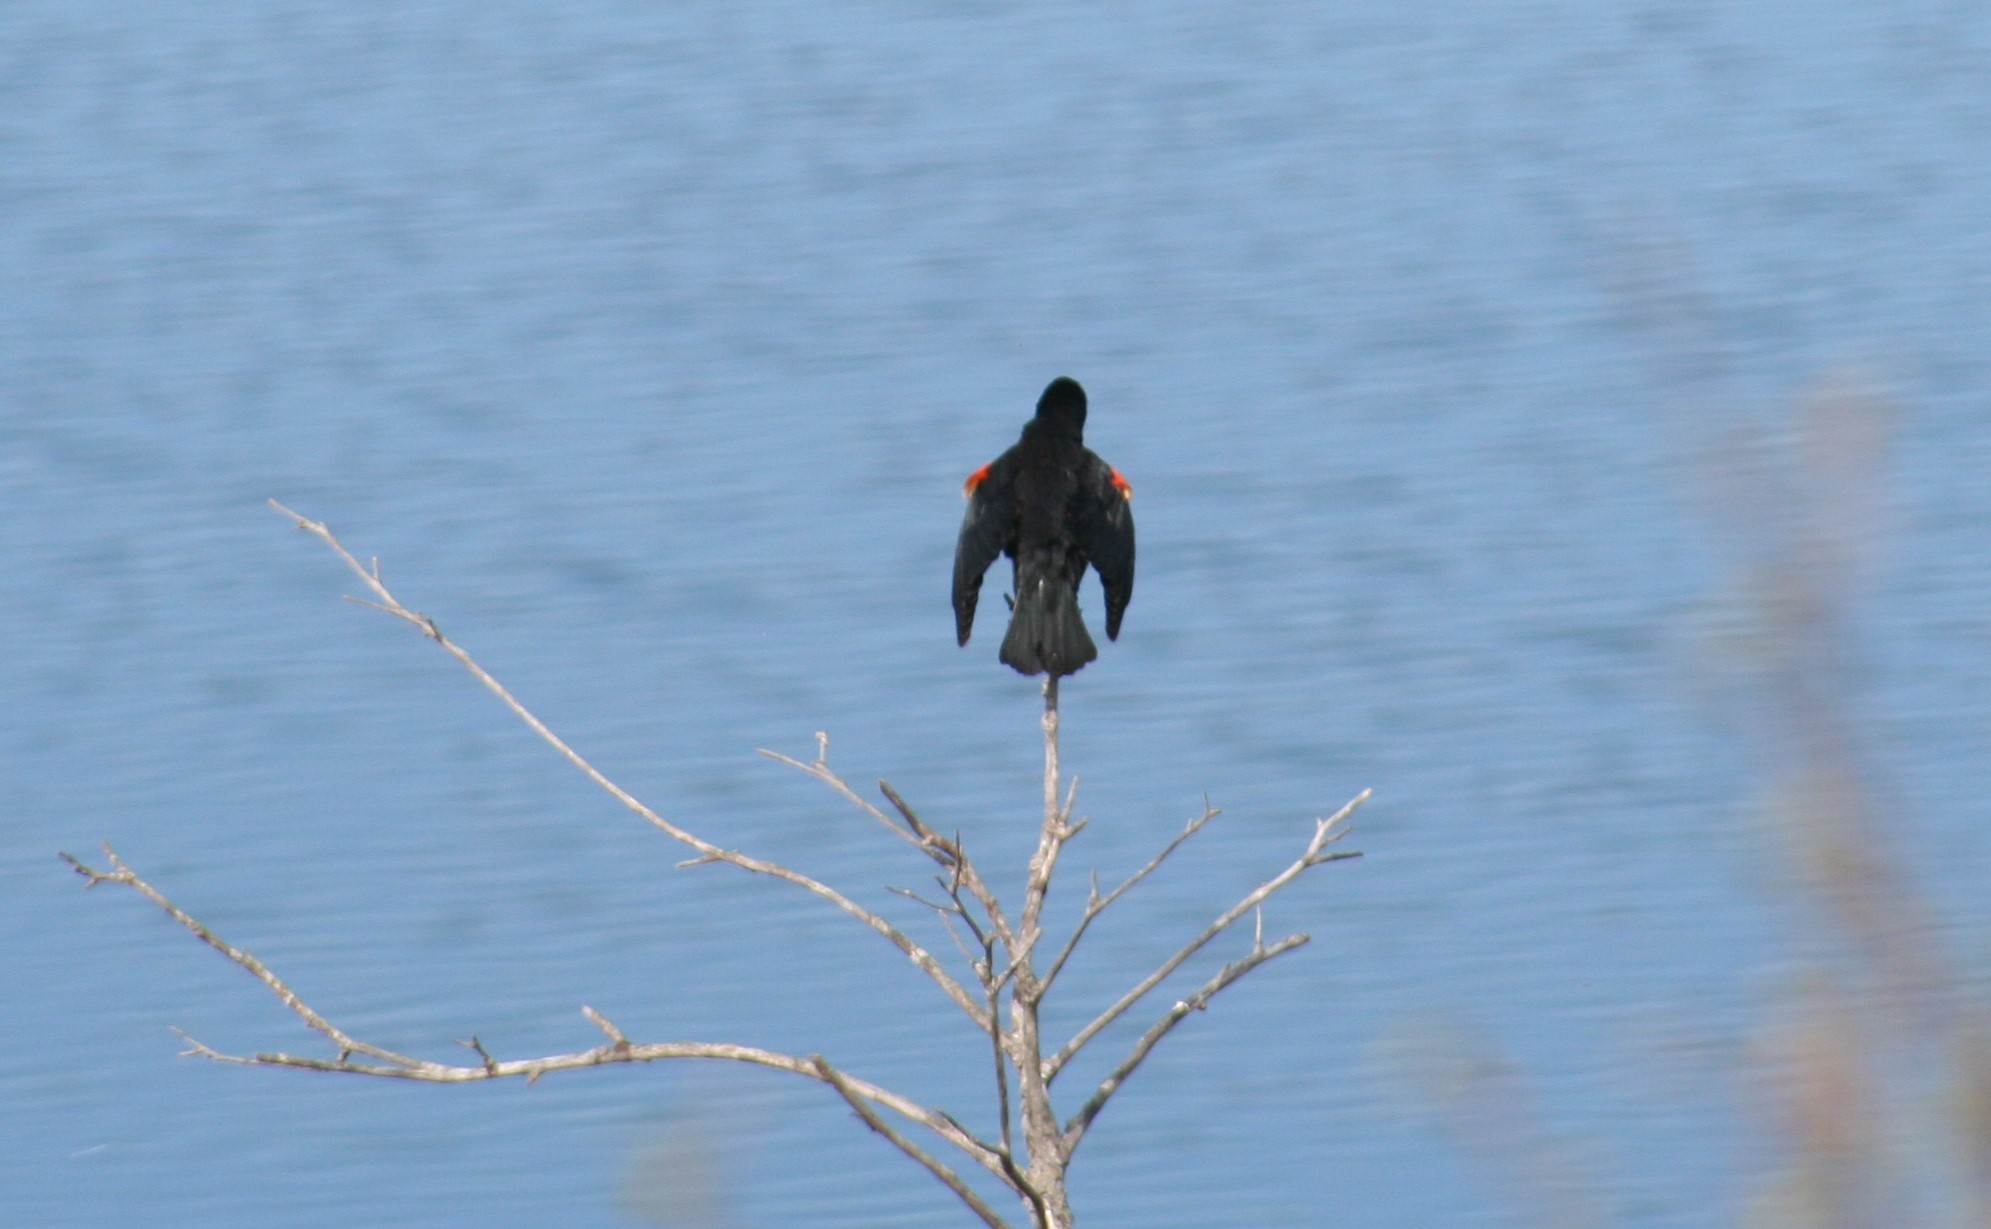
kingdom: Animalia
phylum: Chordata
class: Aves
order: Passeriformes
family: Icteridae
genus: Agelaius
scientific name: Agelaius phoeniceus
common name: Red-winged blackbird
